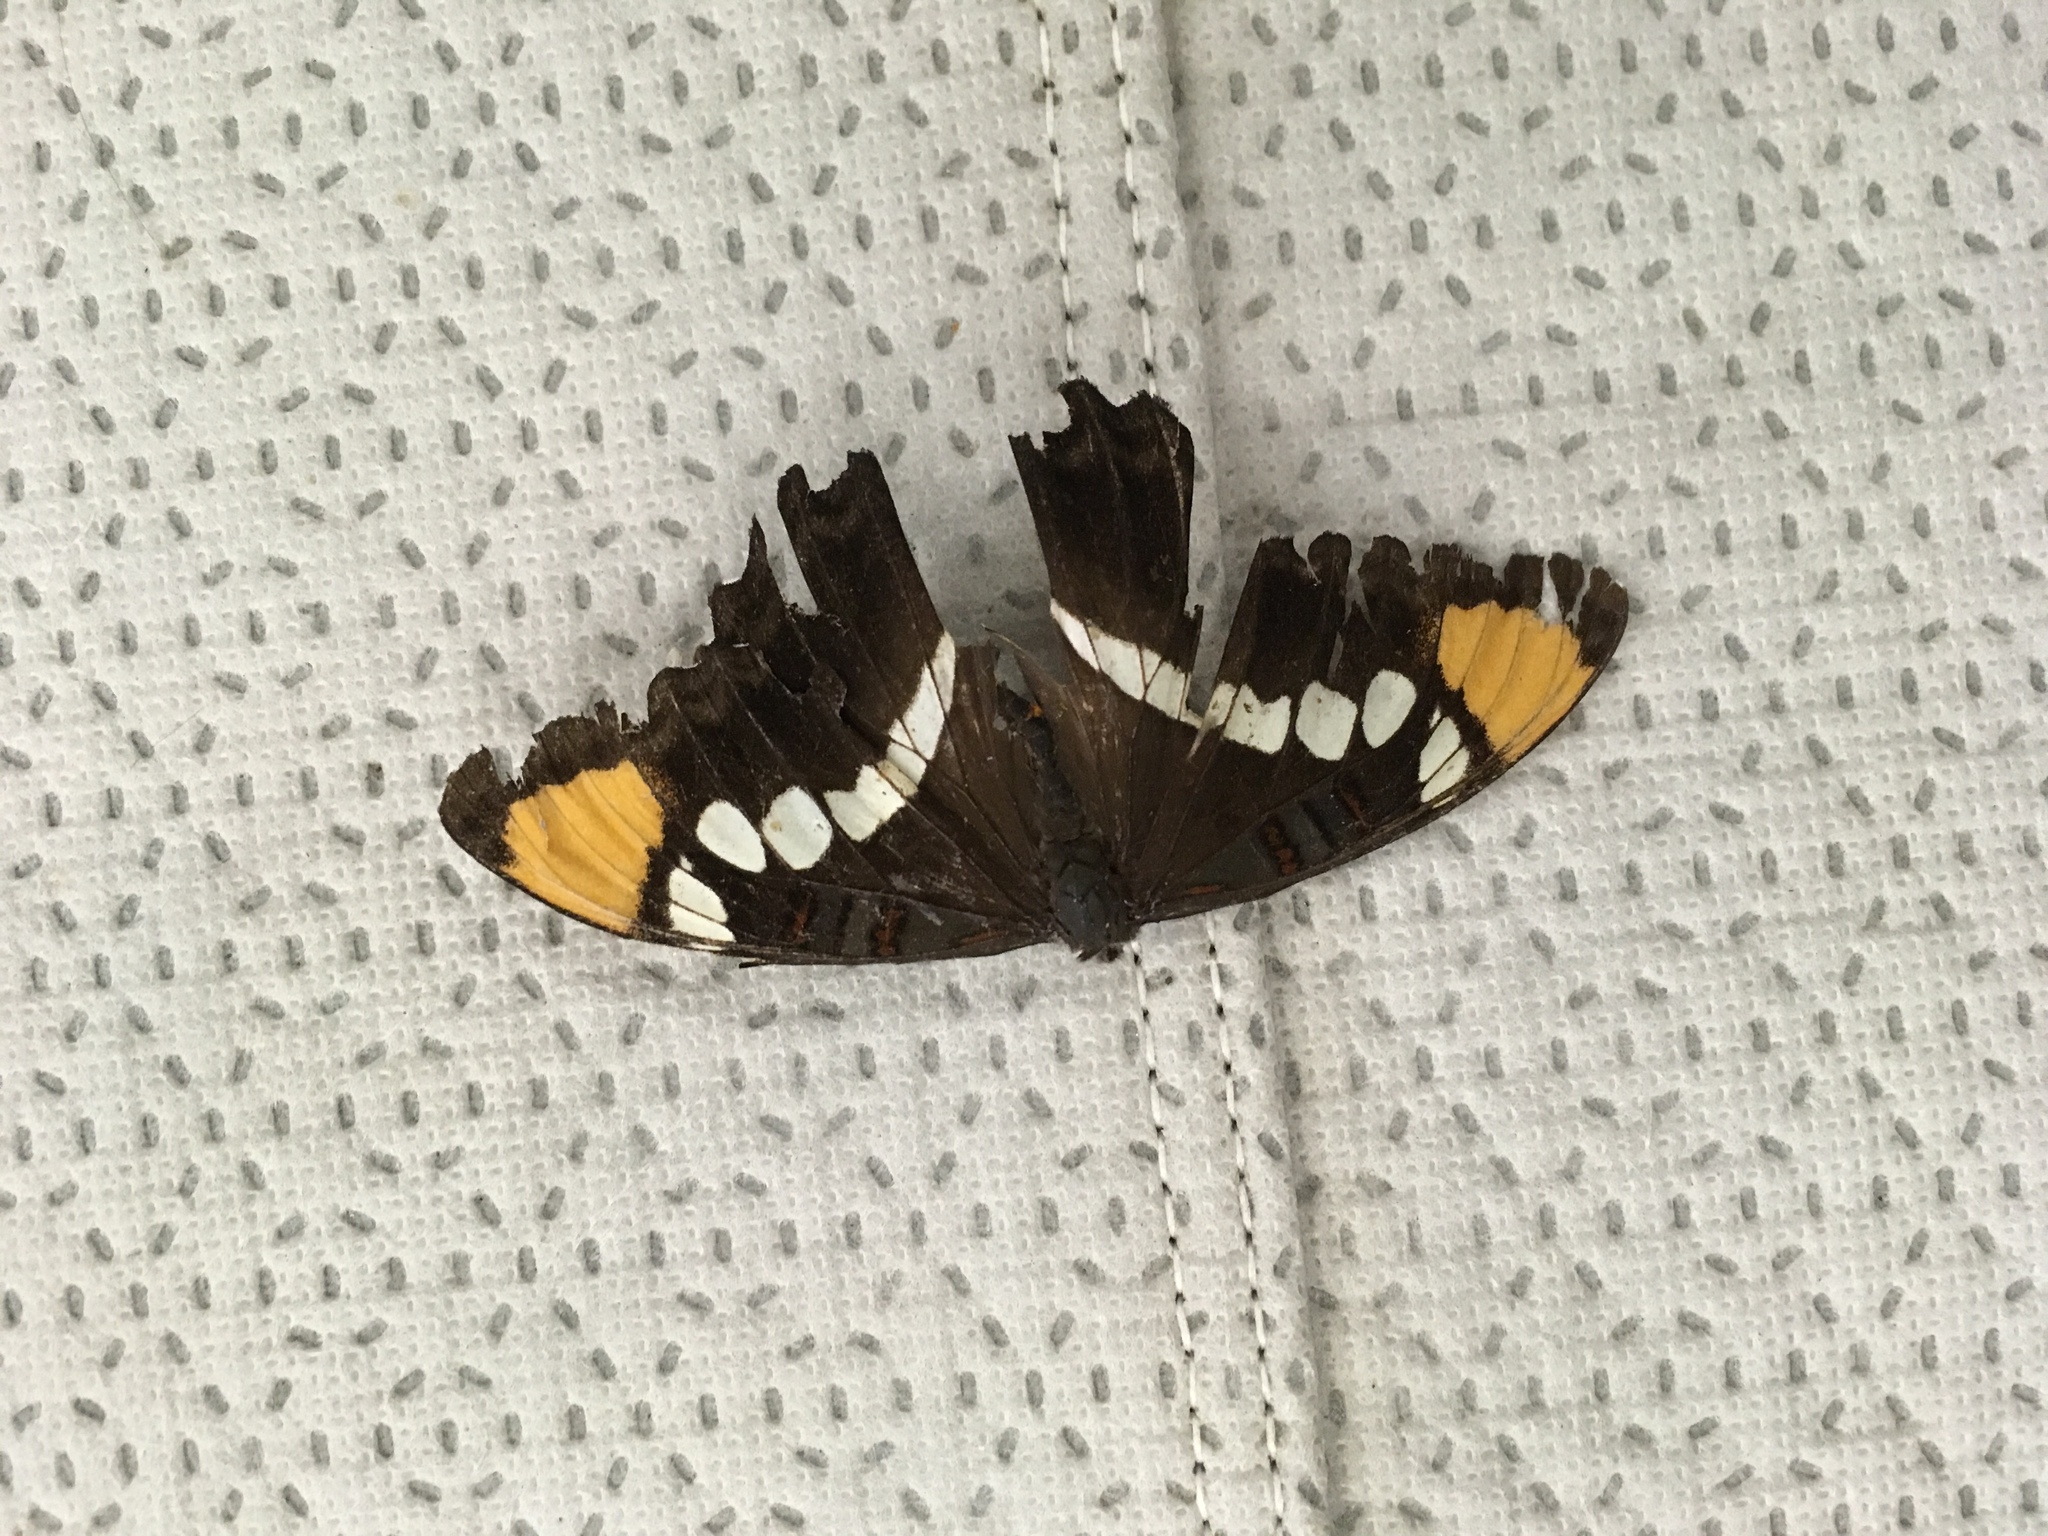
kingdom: Animalia
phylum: Arthropoda
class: Insecta
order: Lepidoptera
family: Nymphalidae
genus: Limenitis
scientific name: Limenitis bredowii
